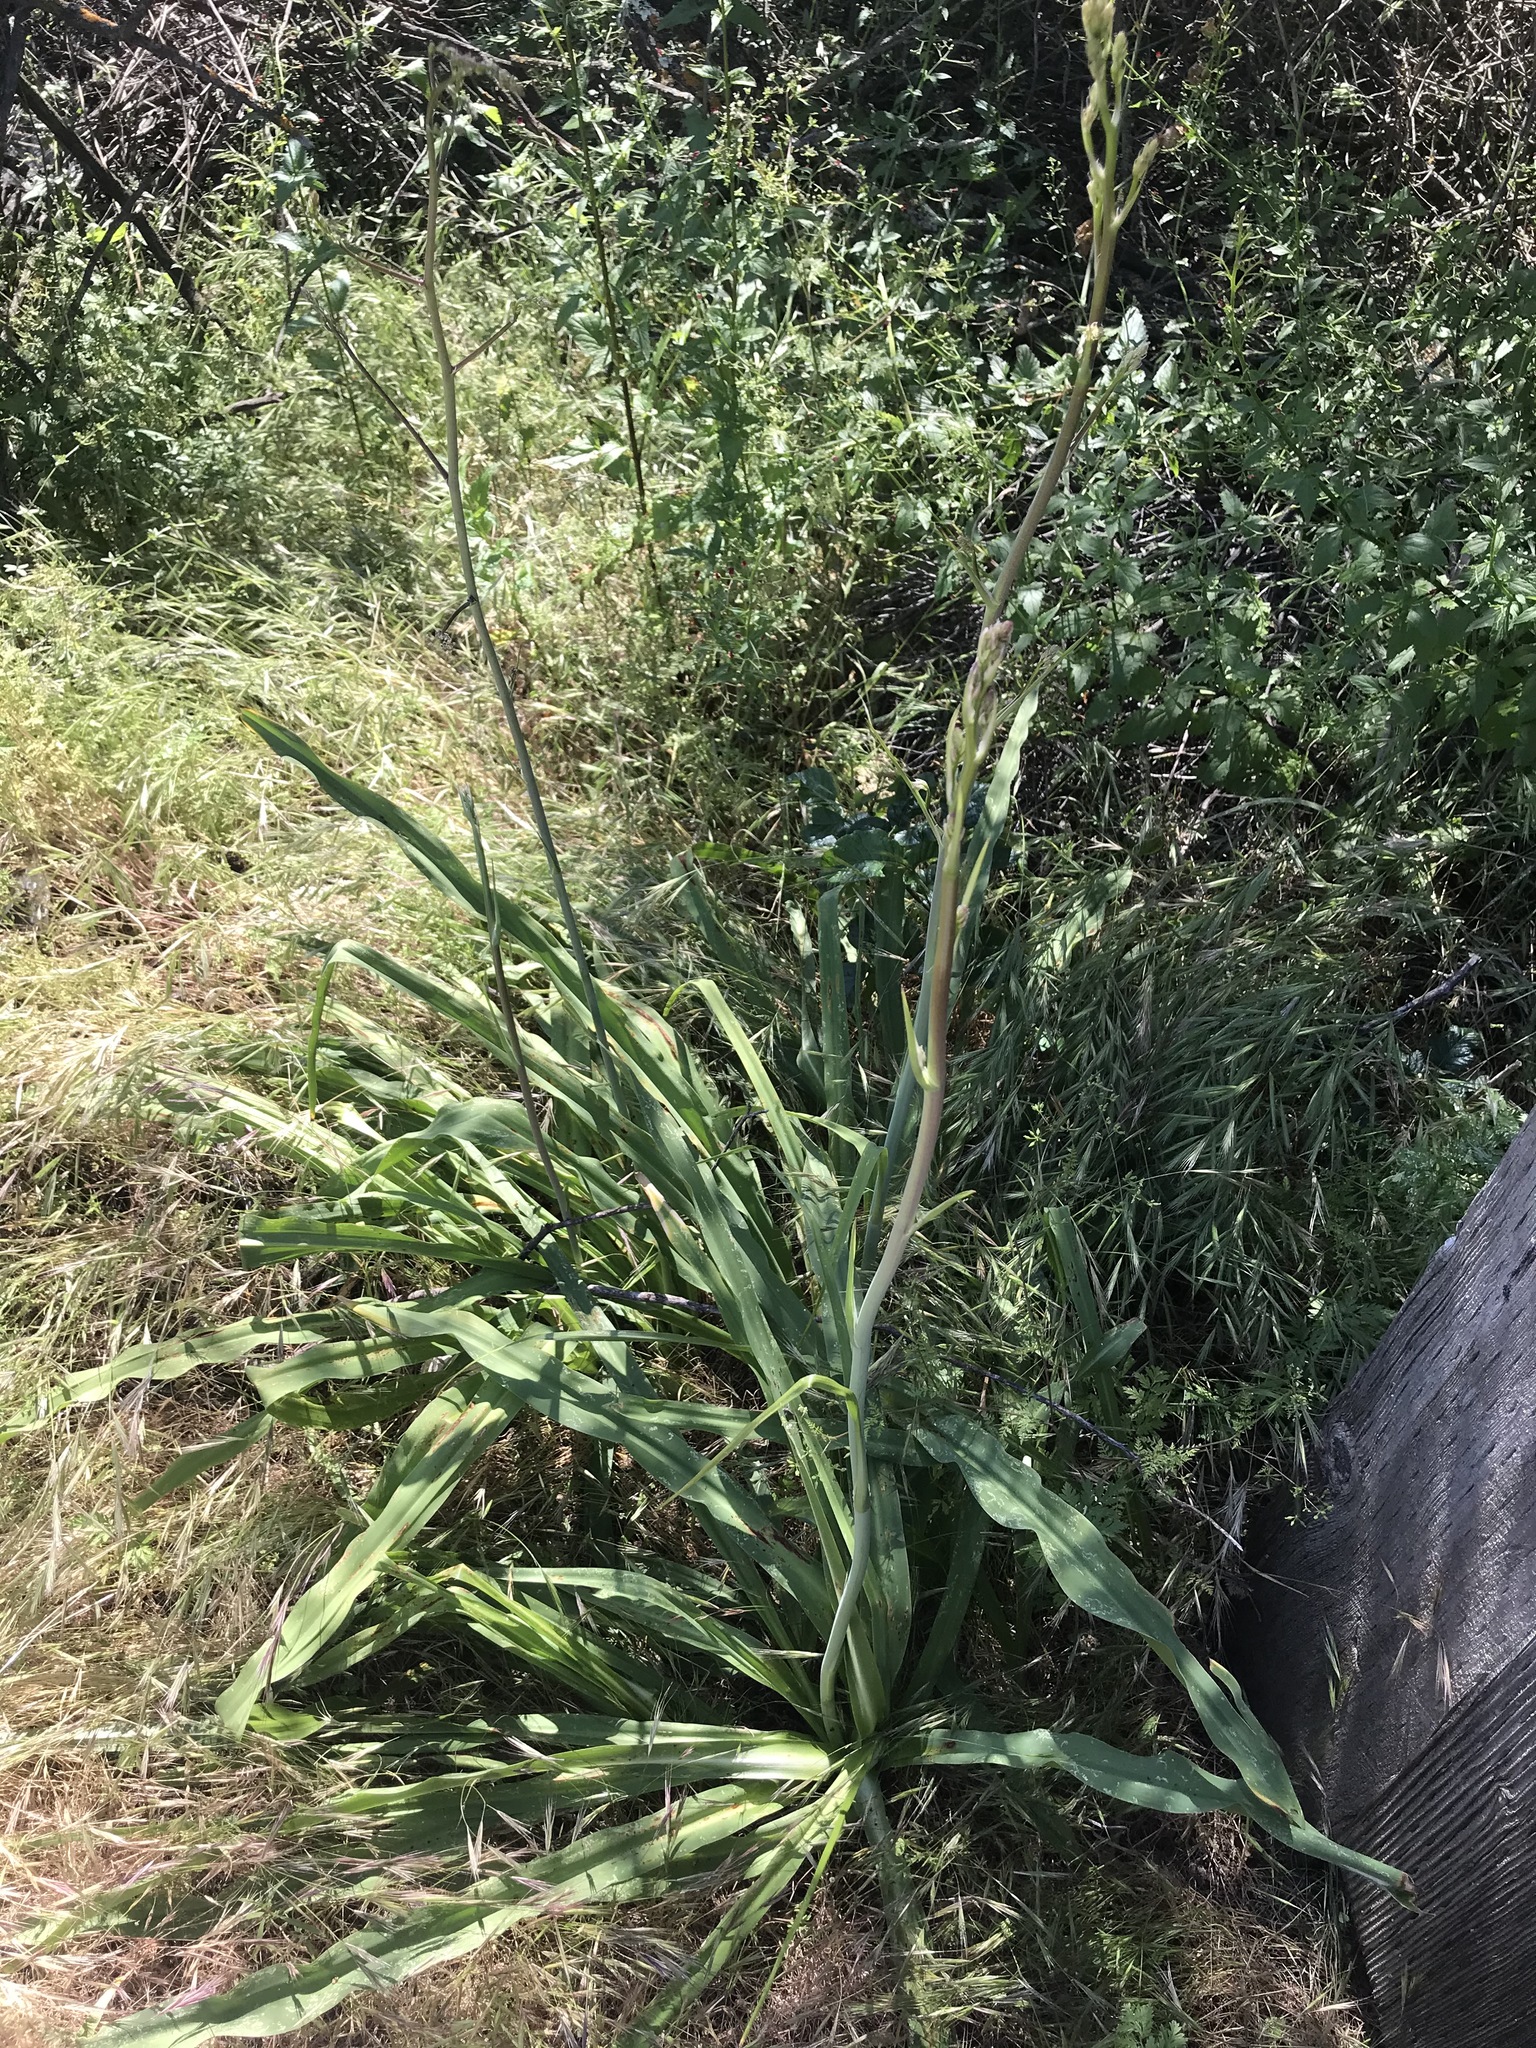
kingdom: Plantae
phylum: Tracheophyta
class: Liliopsida
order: Asparagales
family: Asparagaceae
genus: Chlorogalum
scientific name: Chlorogalum pomeridianum
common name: Amole
